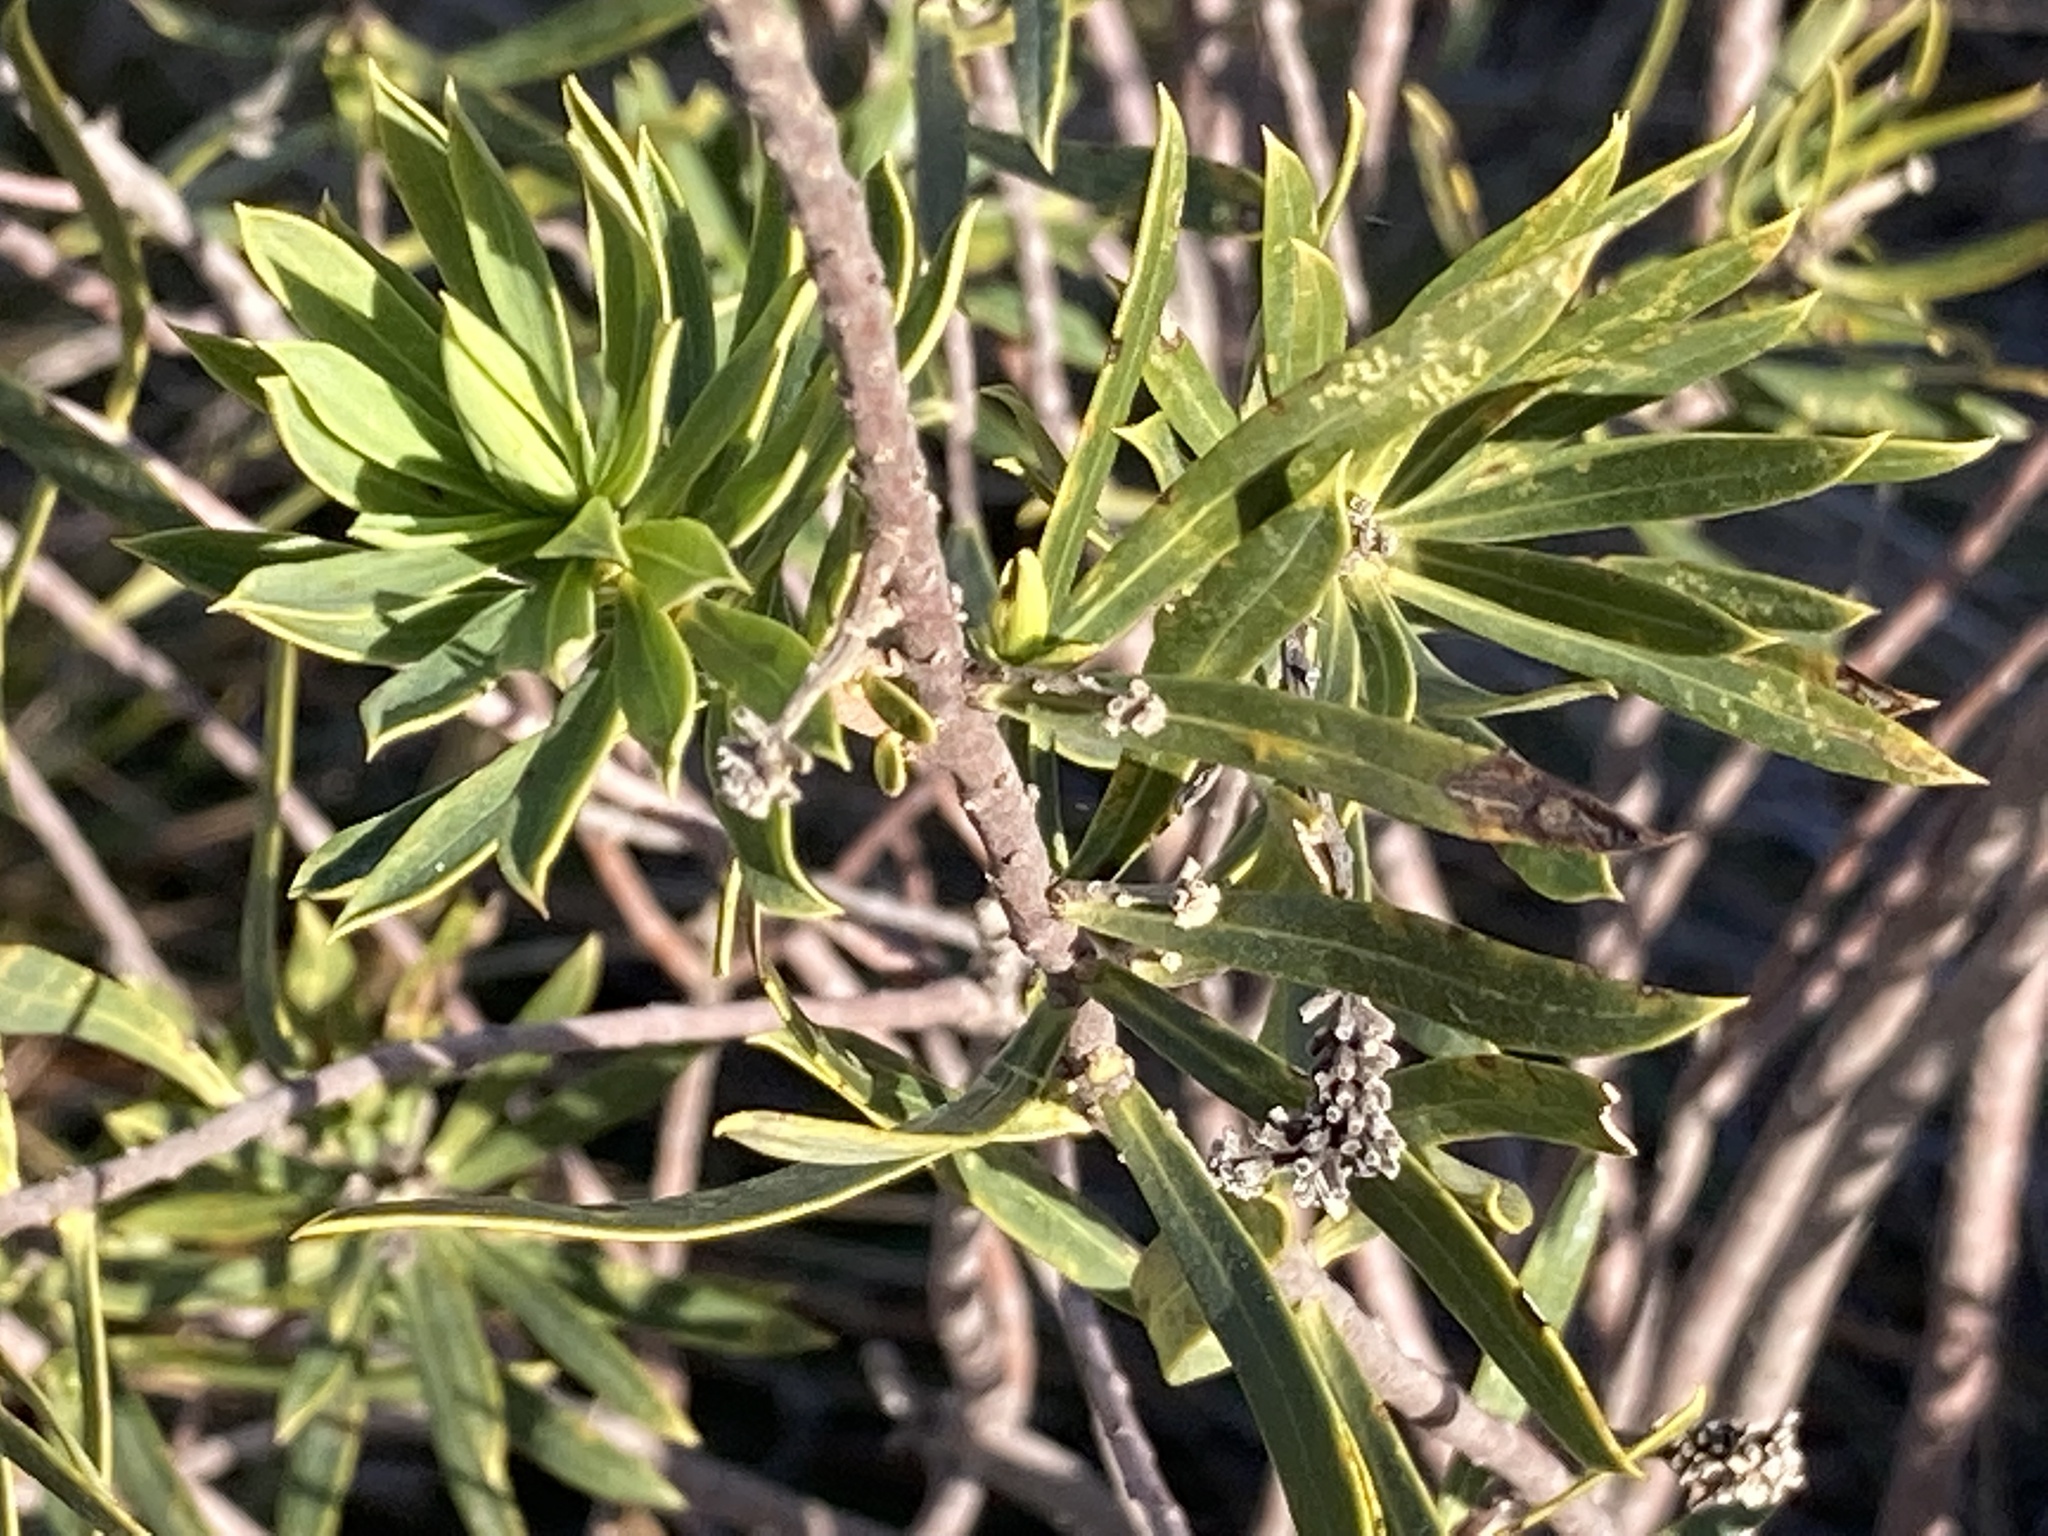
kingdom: Plantae
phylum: Tracheophyta
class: Magnoliopsida
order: Malvales
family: Thymelaeaceae
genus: Daphne
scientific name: Daphne gnidium
